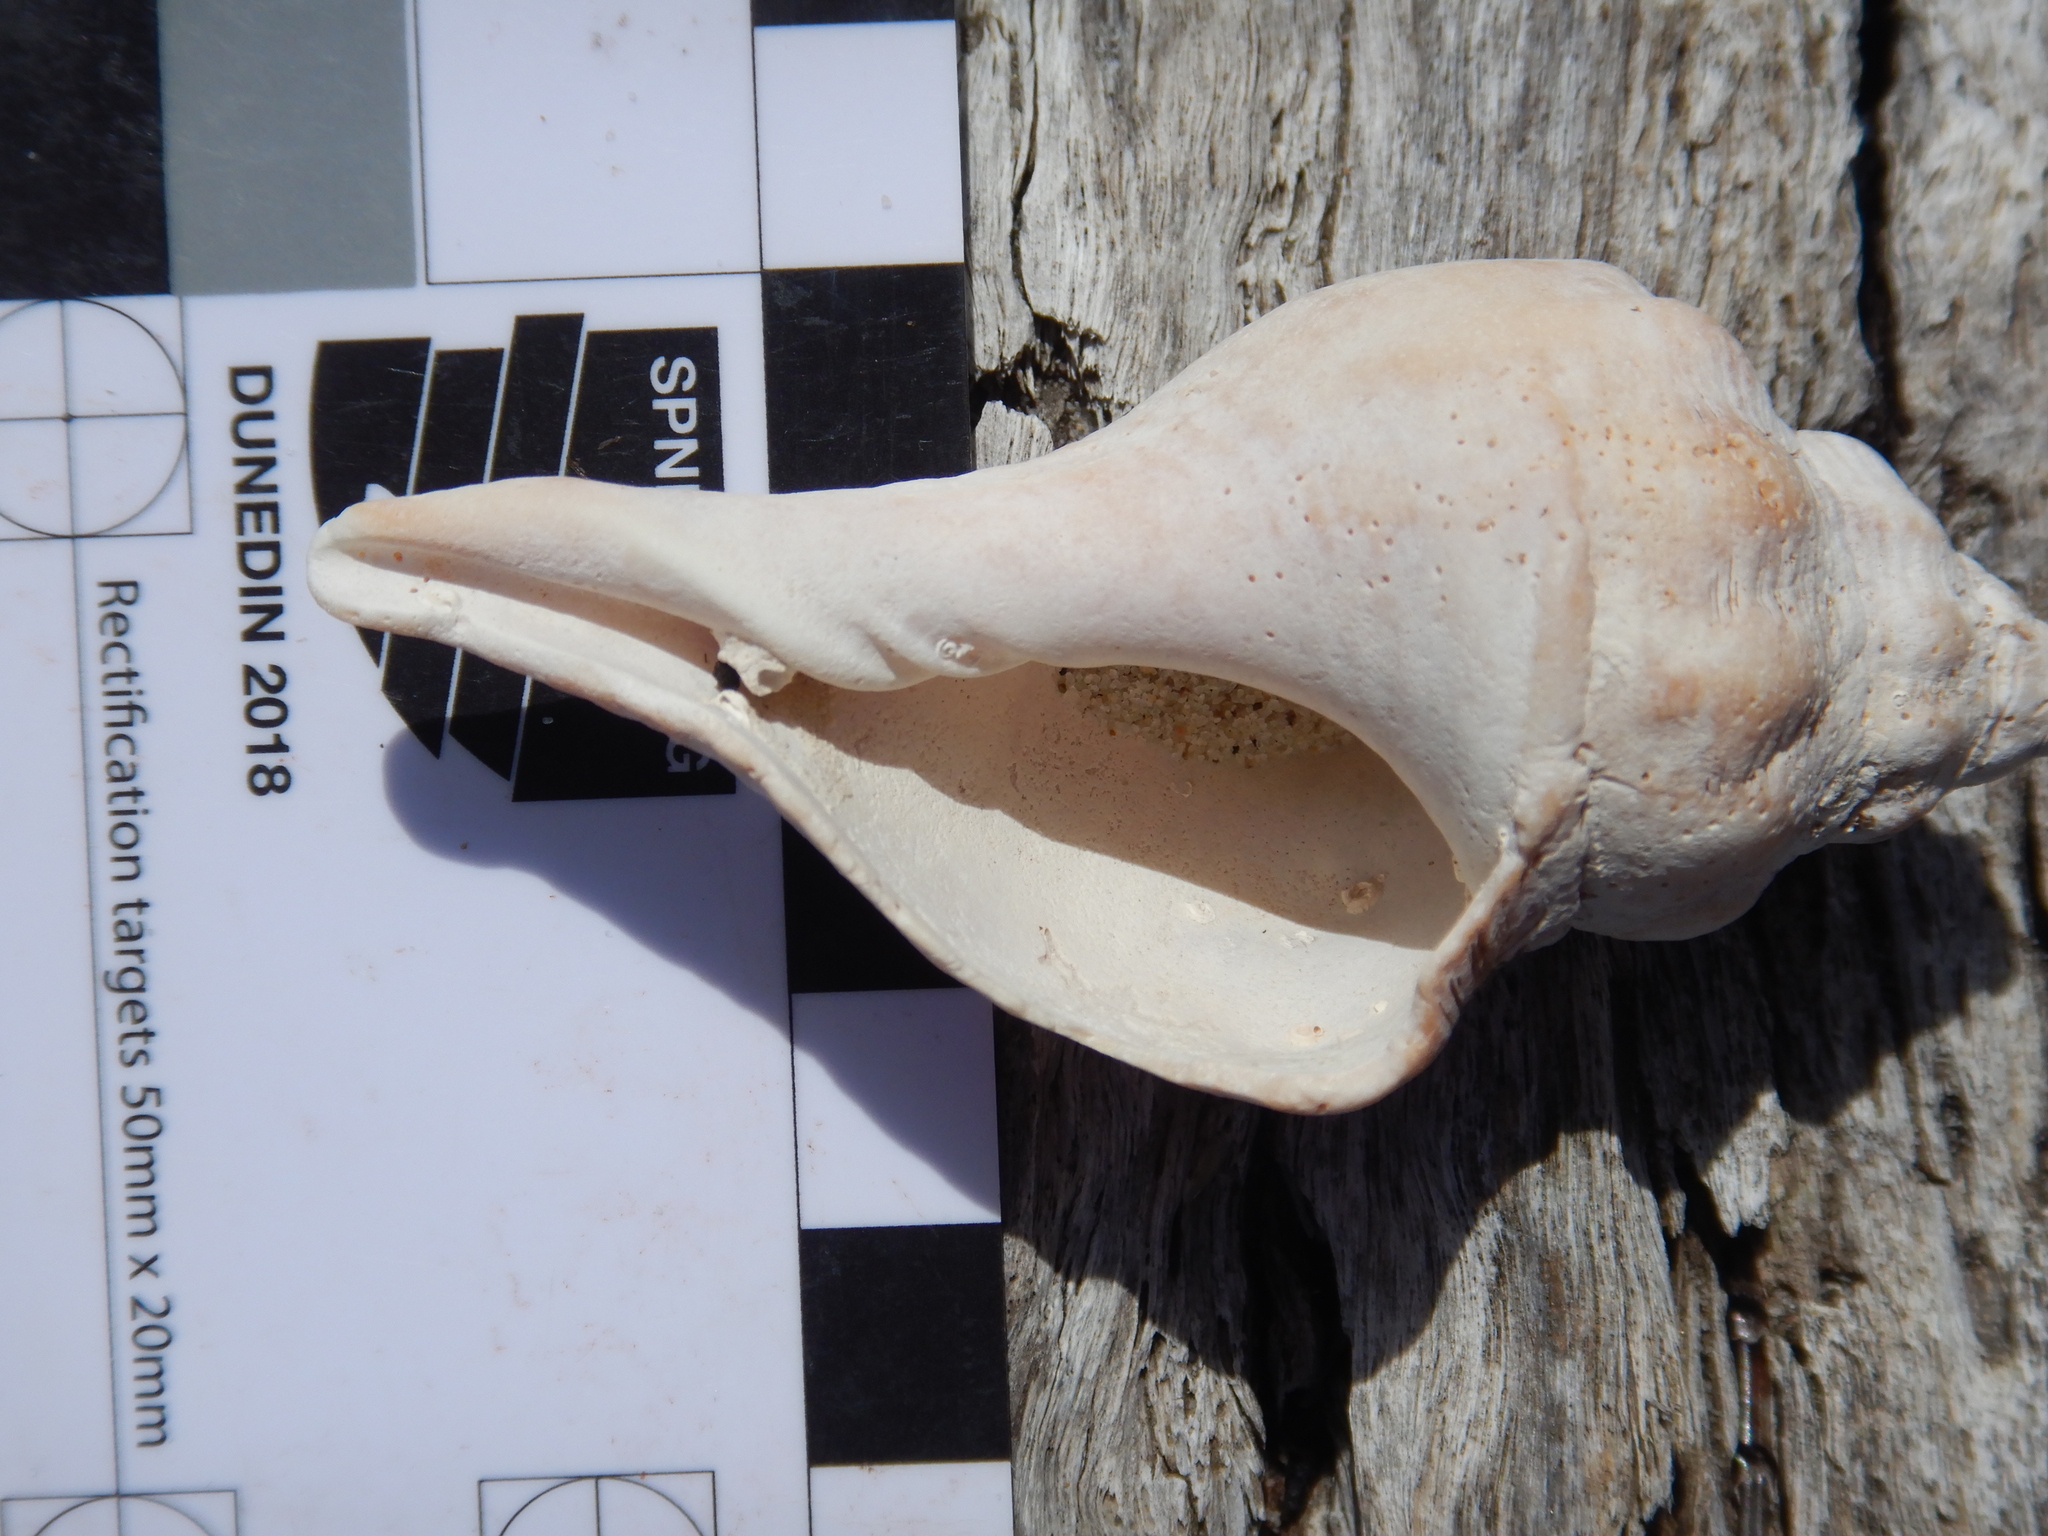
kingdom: Animalia
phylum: Mollusca
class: Gastropoda
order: Neogastropoda
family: Fasciolariidae
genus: Australaria
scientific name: Australaria australasia
